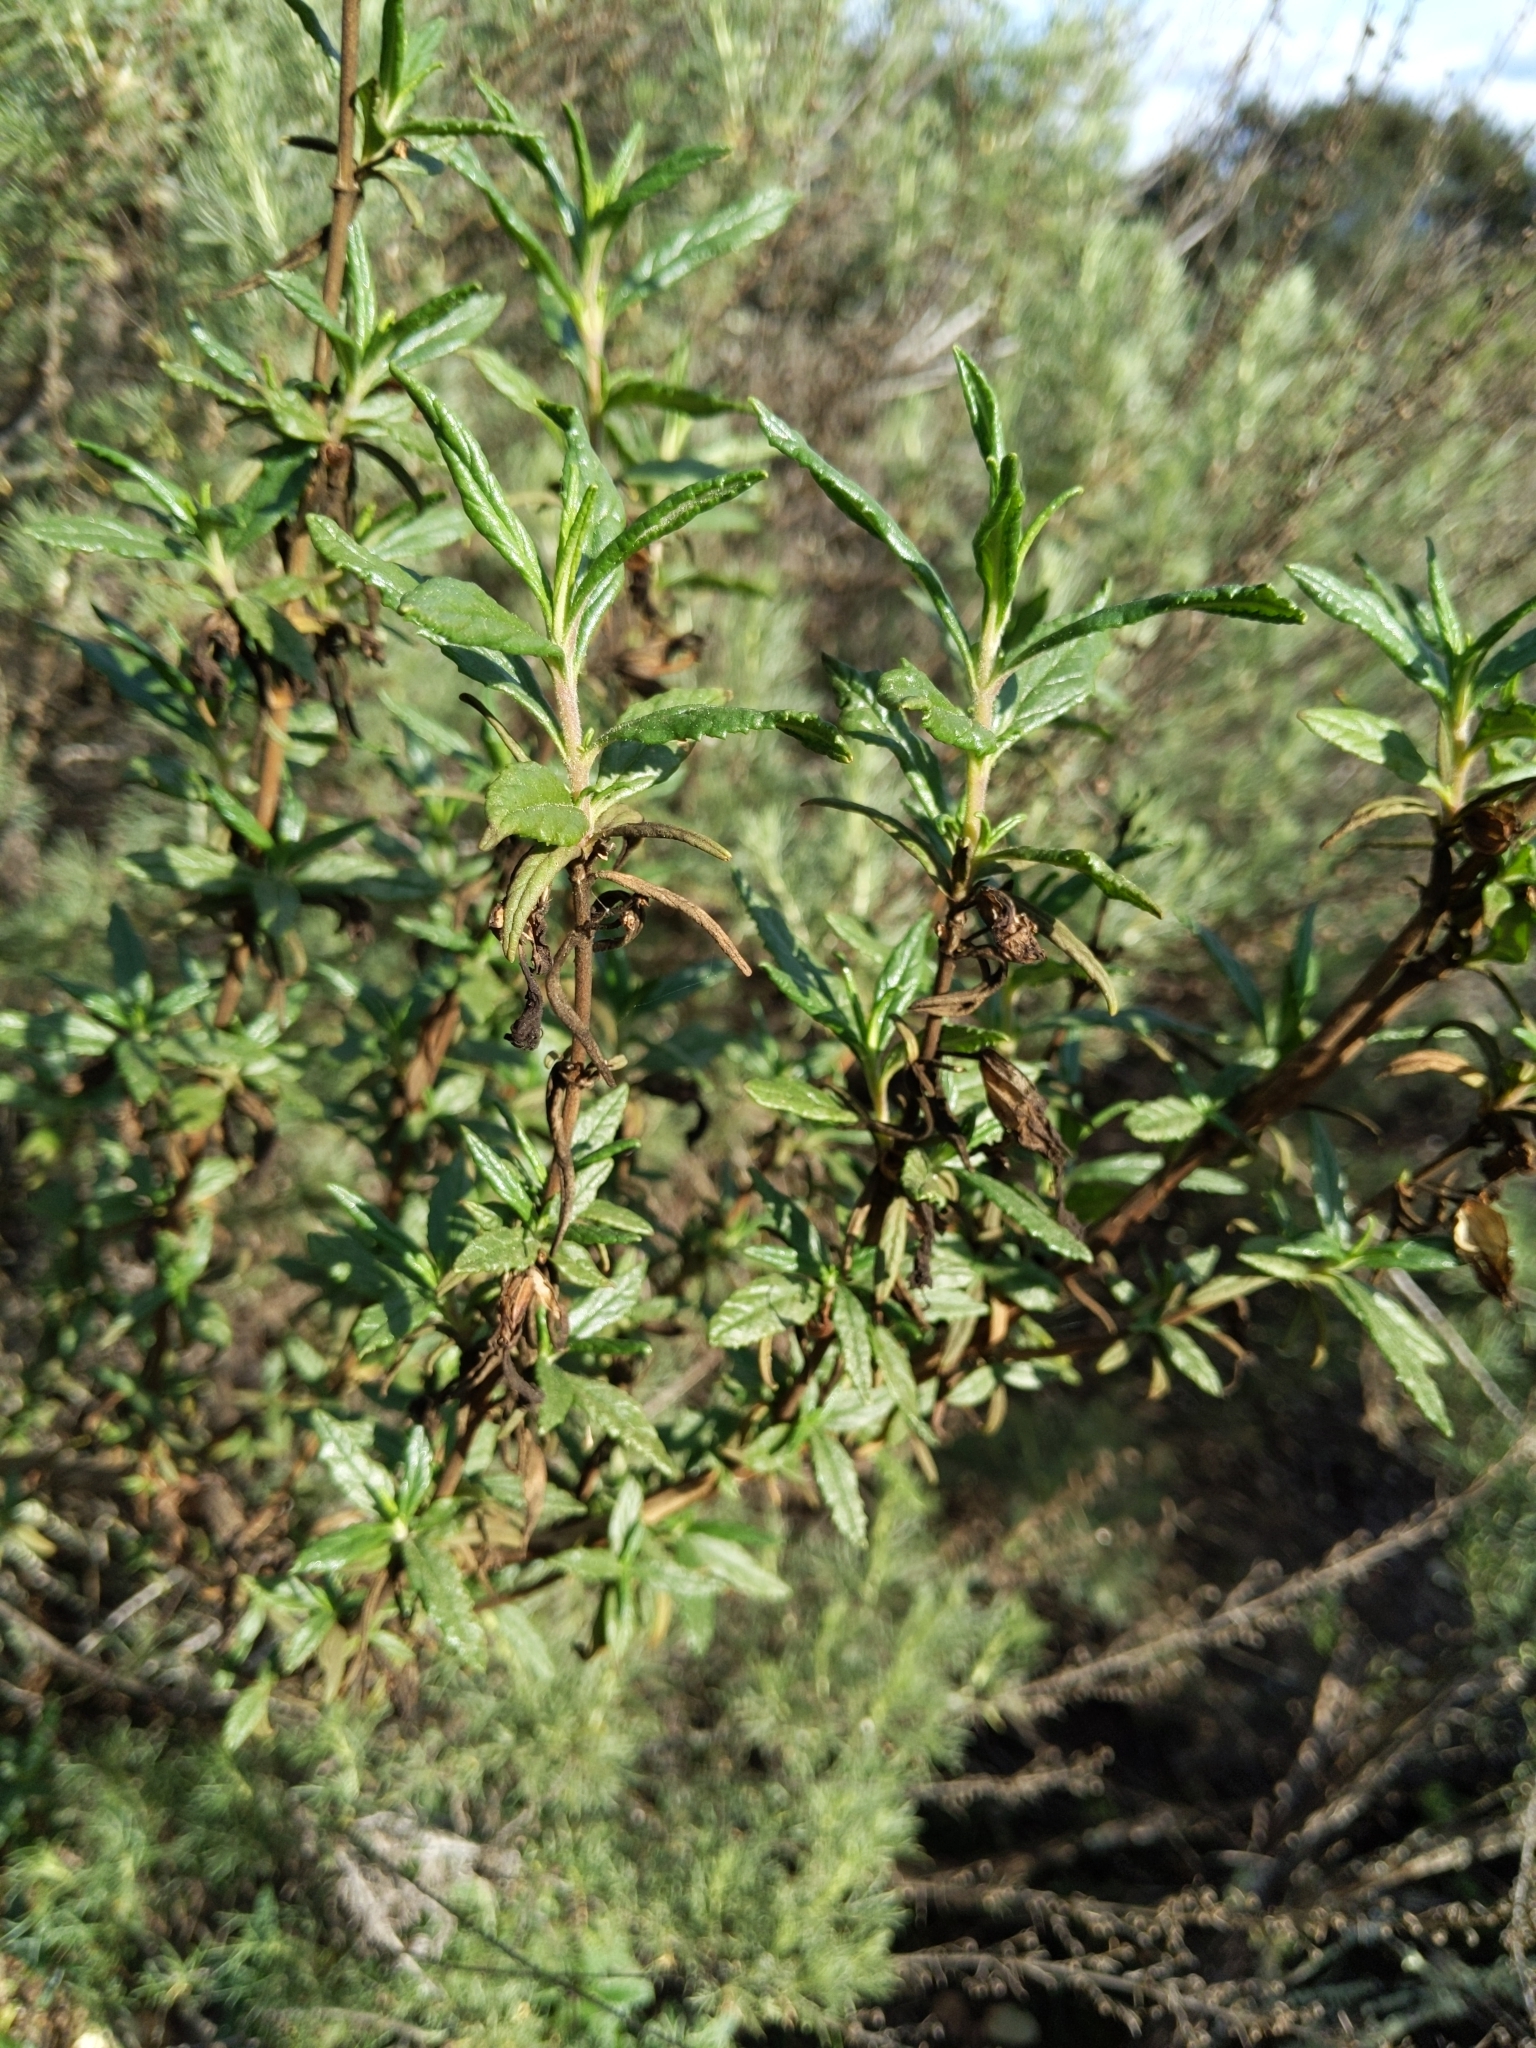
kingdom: Plantae
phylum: Tracheophyta
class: Magnoliopsida
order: Lamiales
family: Phrymaceae
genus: Diplacus
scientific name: Diplacus aurantiacus
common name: Bush monkey-flower
